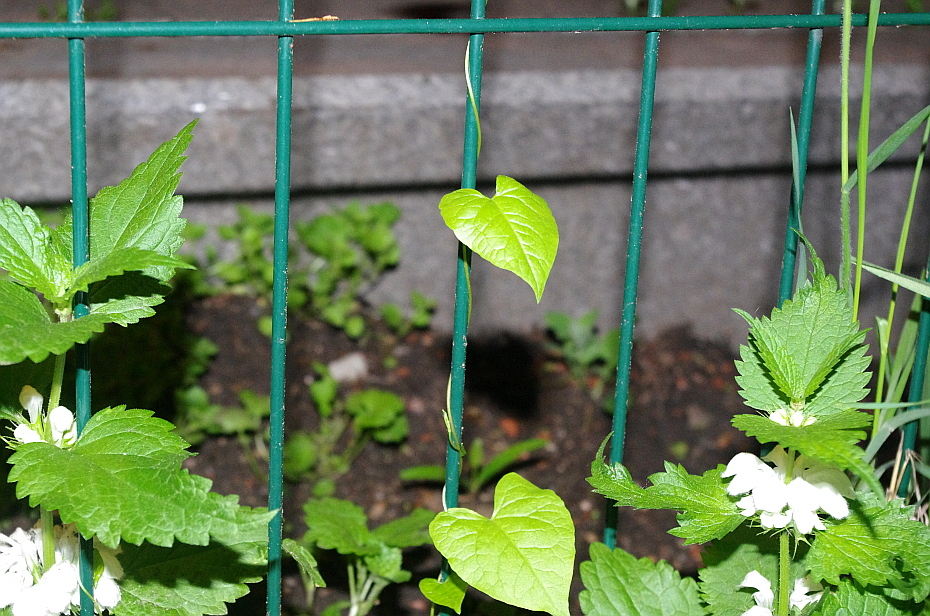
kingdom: Plantae
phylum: Tracheophyta
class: Magnoliopsida
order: Caryophyllales
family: Polygonaceae
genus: Fallopia
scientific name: Fallopia dumetorum
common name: Copse-bindweed
